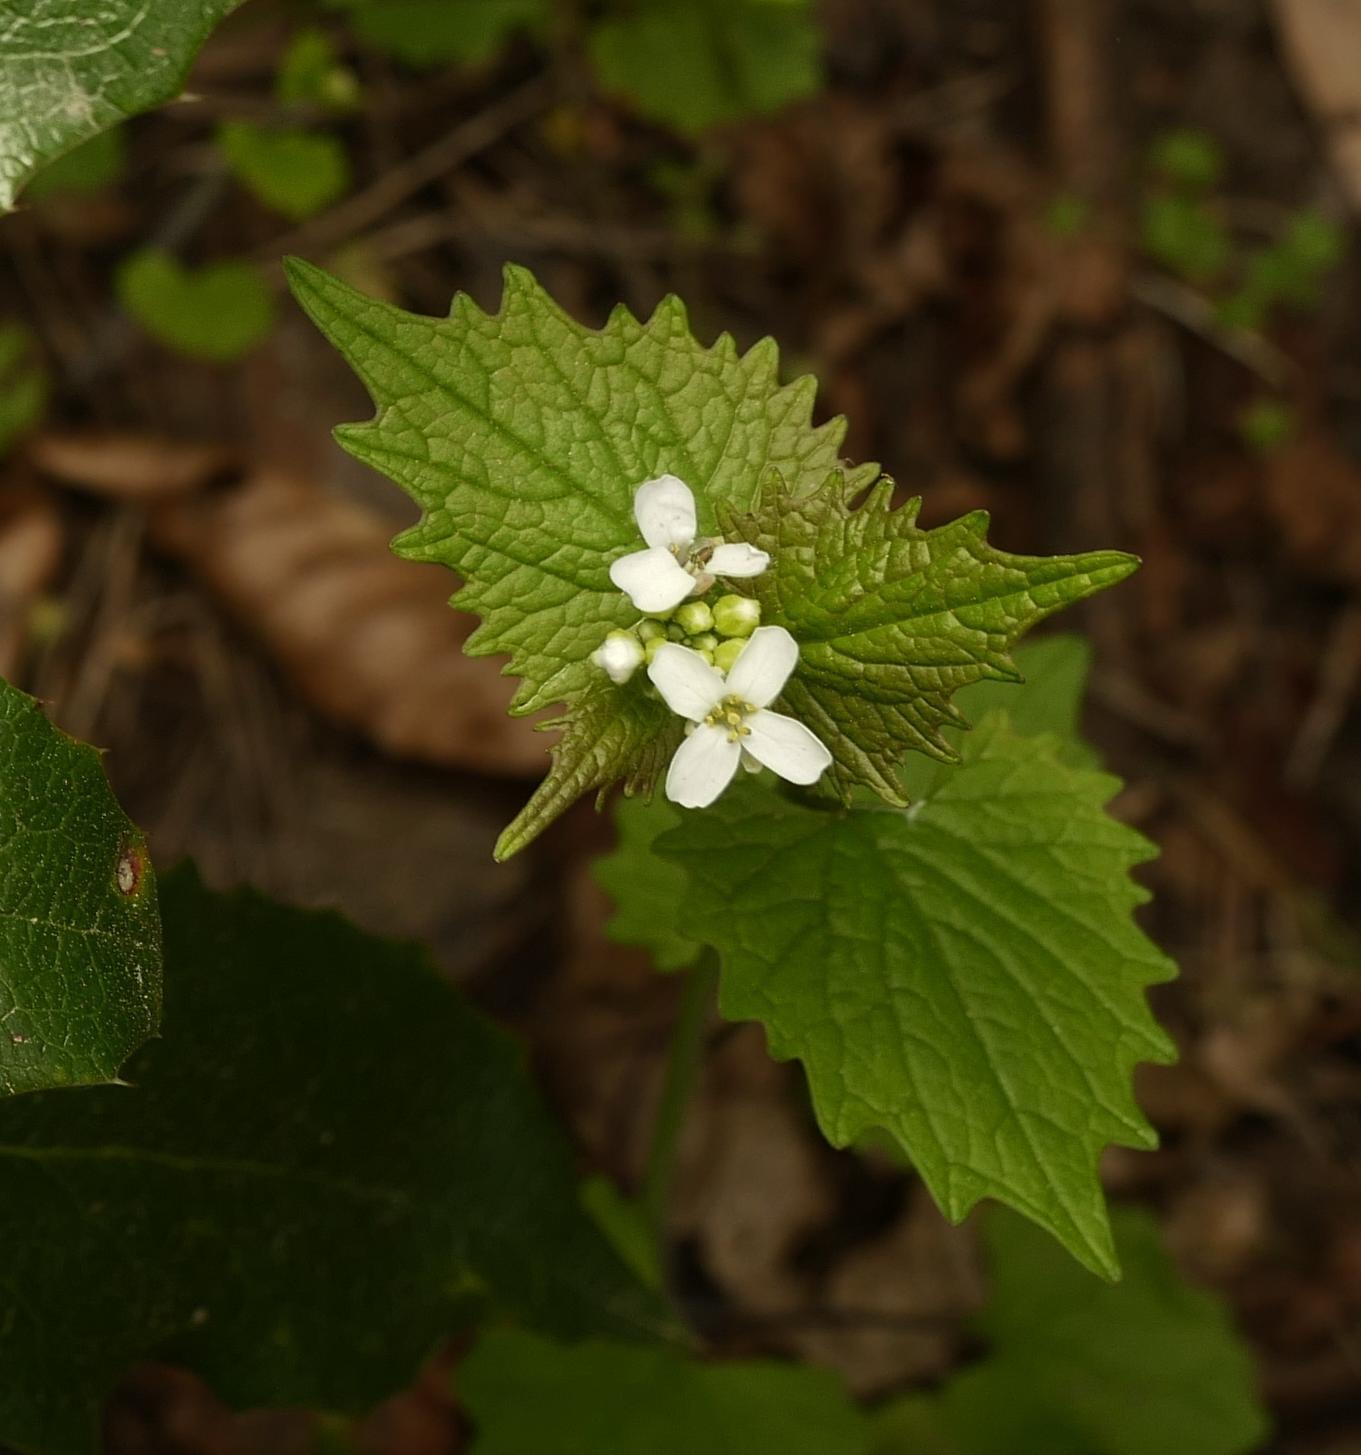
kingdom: Plantae
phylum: Tracheophyta
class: Magnoliopsida
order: Brassicales
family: Brassicaceae
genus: Alliaria
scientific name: Alliaria petiolata
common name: Garlic mustard
